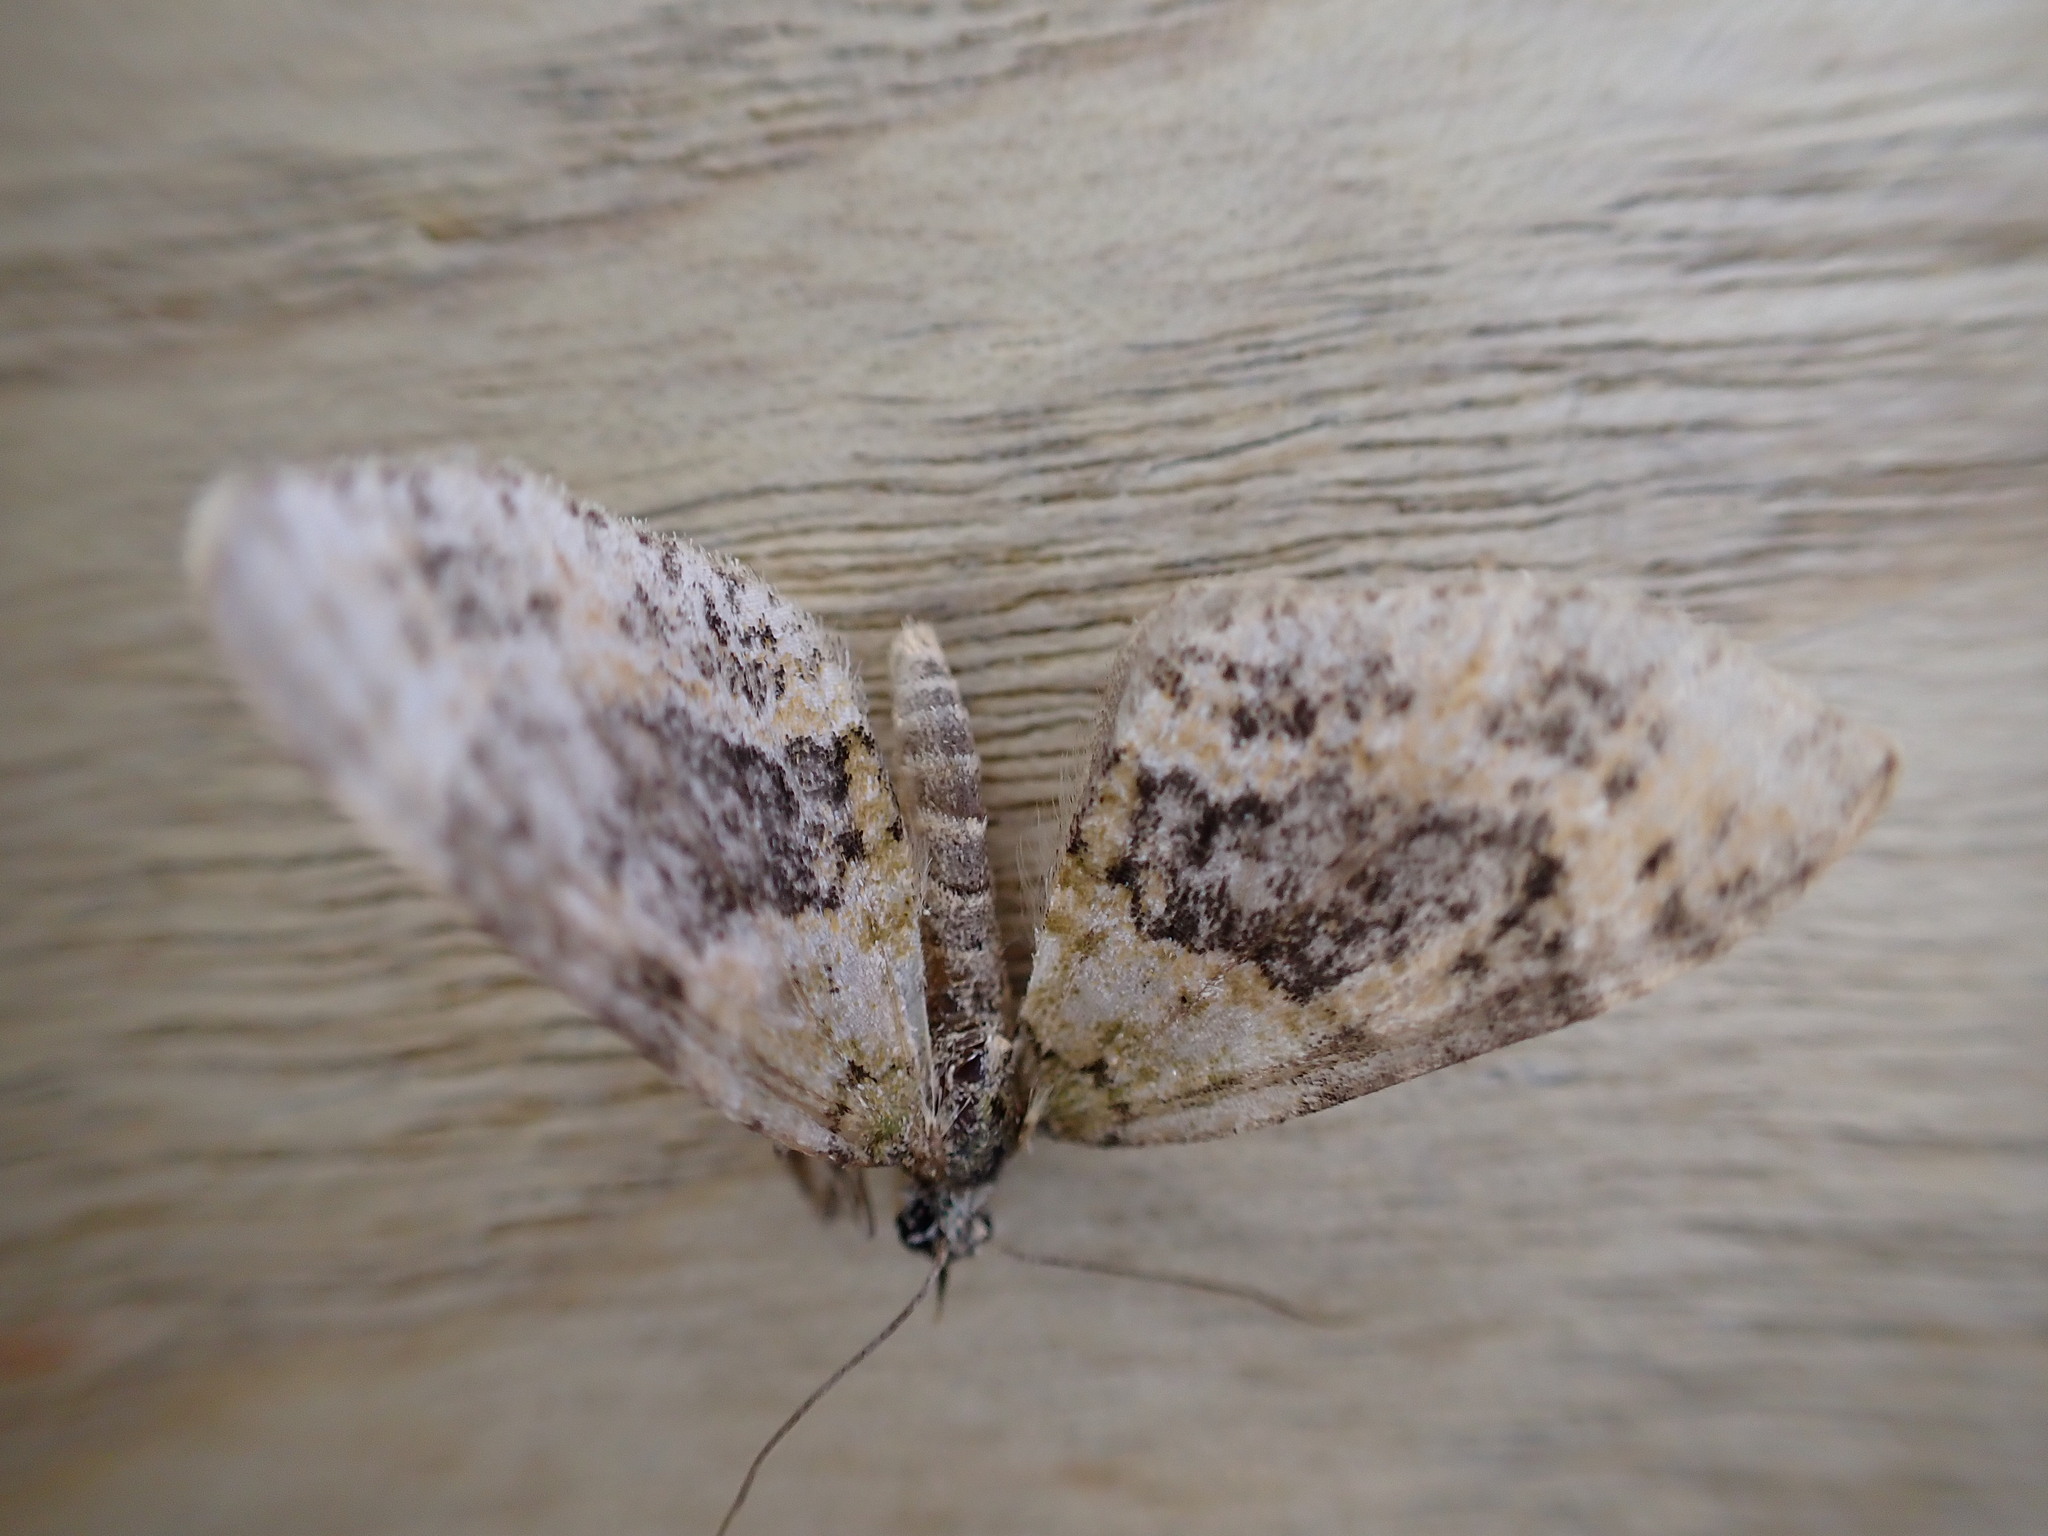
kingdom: Animalia
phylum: Arthropoda
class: Insecta
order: Lepidoptera
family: Geometridae
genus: Acasis
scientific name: Acasis viretata
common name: Yellow-barred brindle
